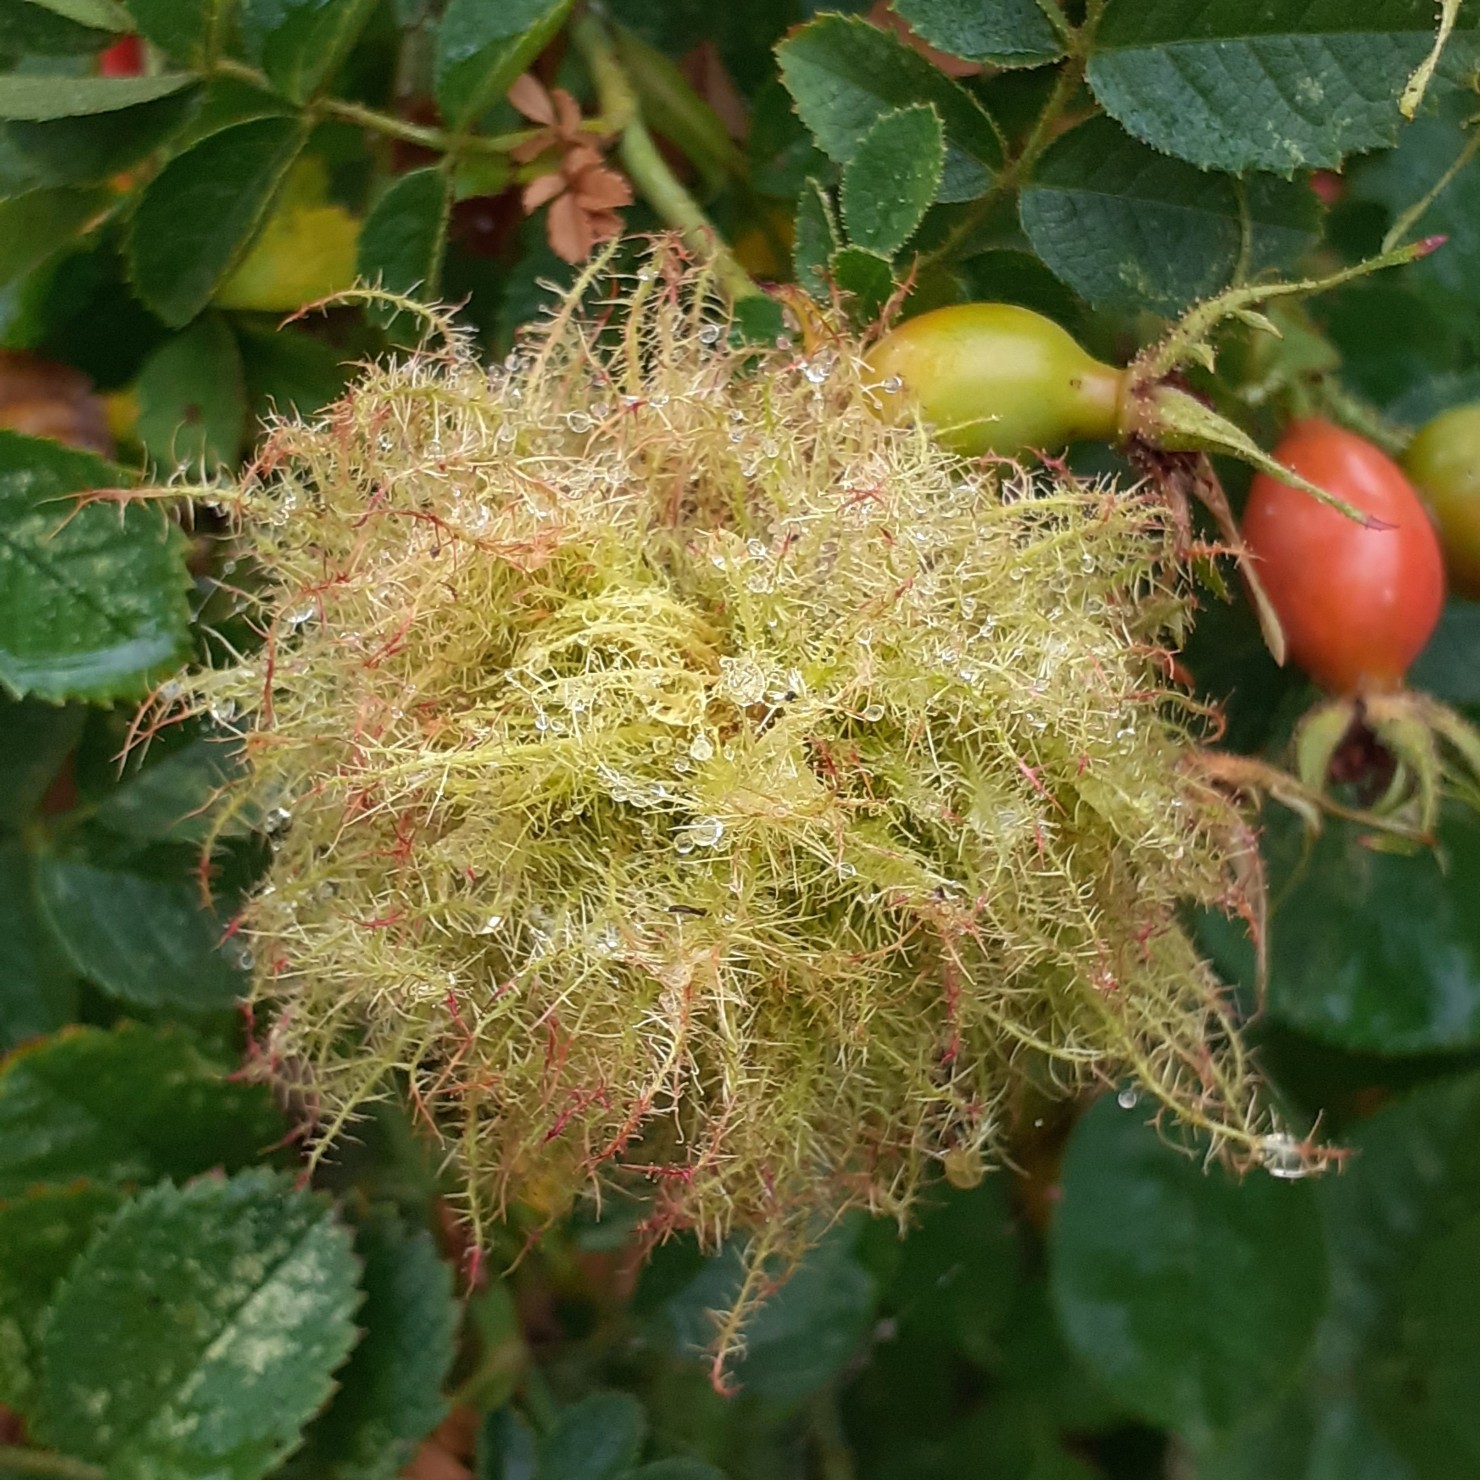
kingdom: Animalia
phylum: Arthropoda
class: Insecta
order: Hymenoptera
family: Cynipidae
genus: Diplolepis
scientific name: Diplolepis rosae
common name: Bedeguar gall
